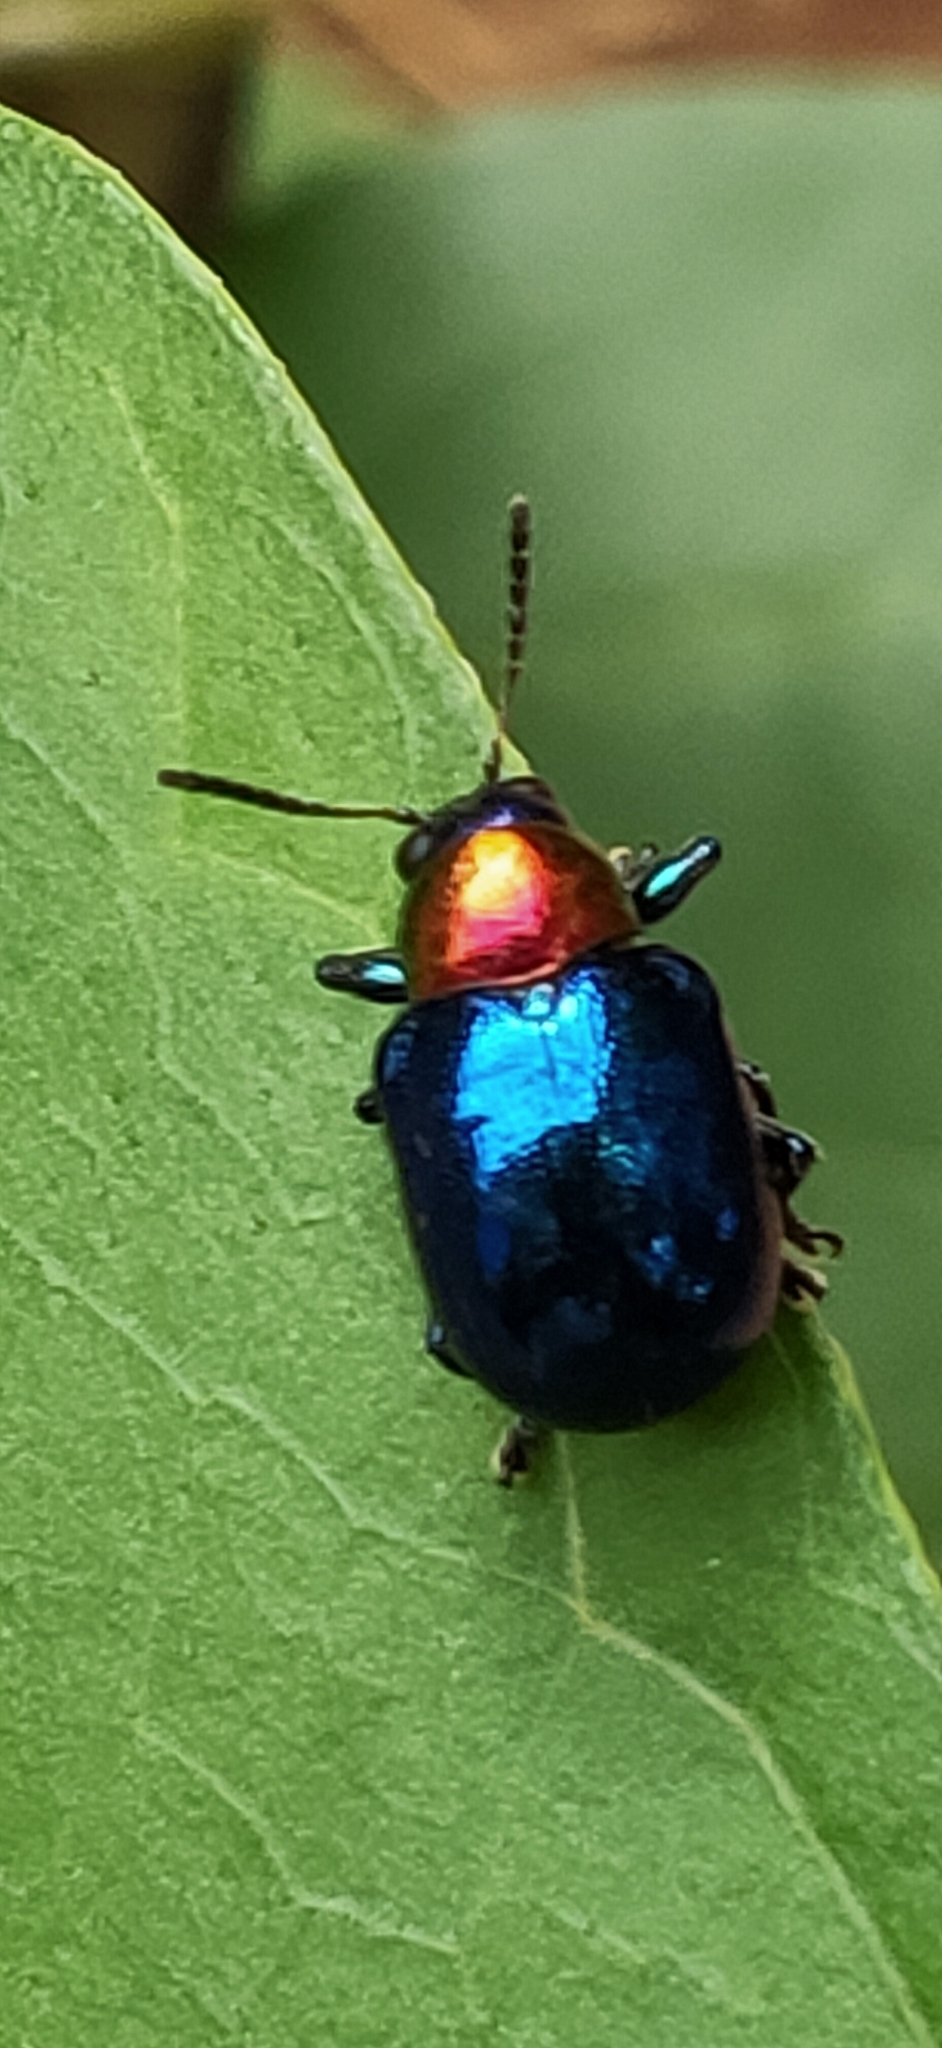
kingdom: Animalia
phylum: Arthropoda
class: Insecta
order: Coleoptera
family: Chrysomelidae
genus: Parheminodes
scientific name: Parheminodes
